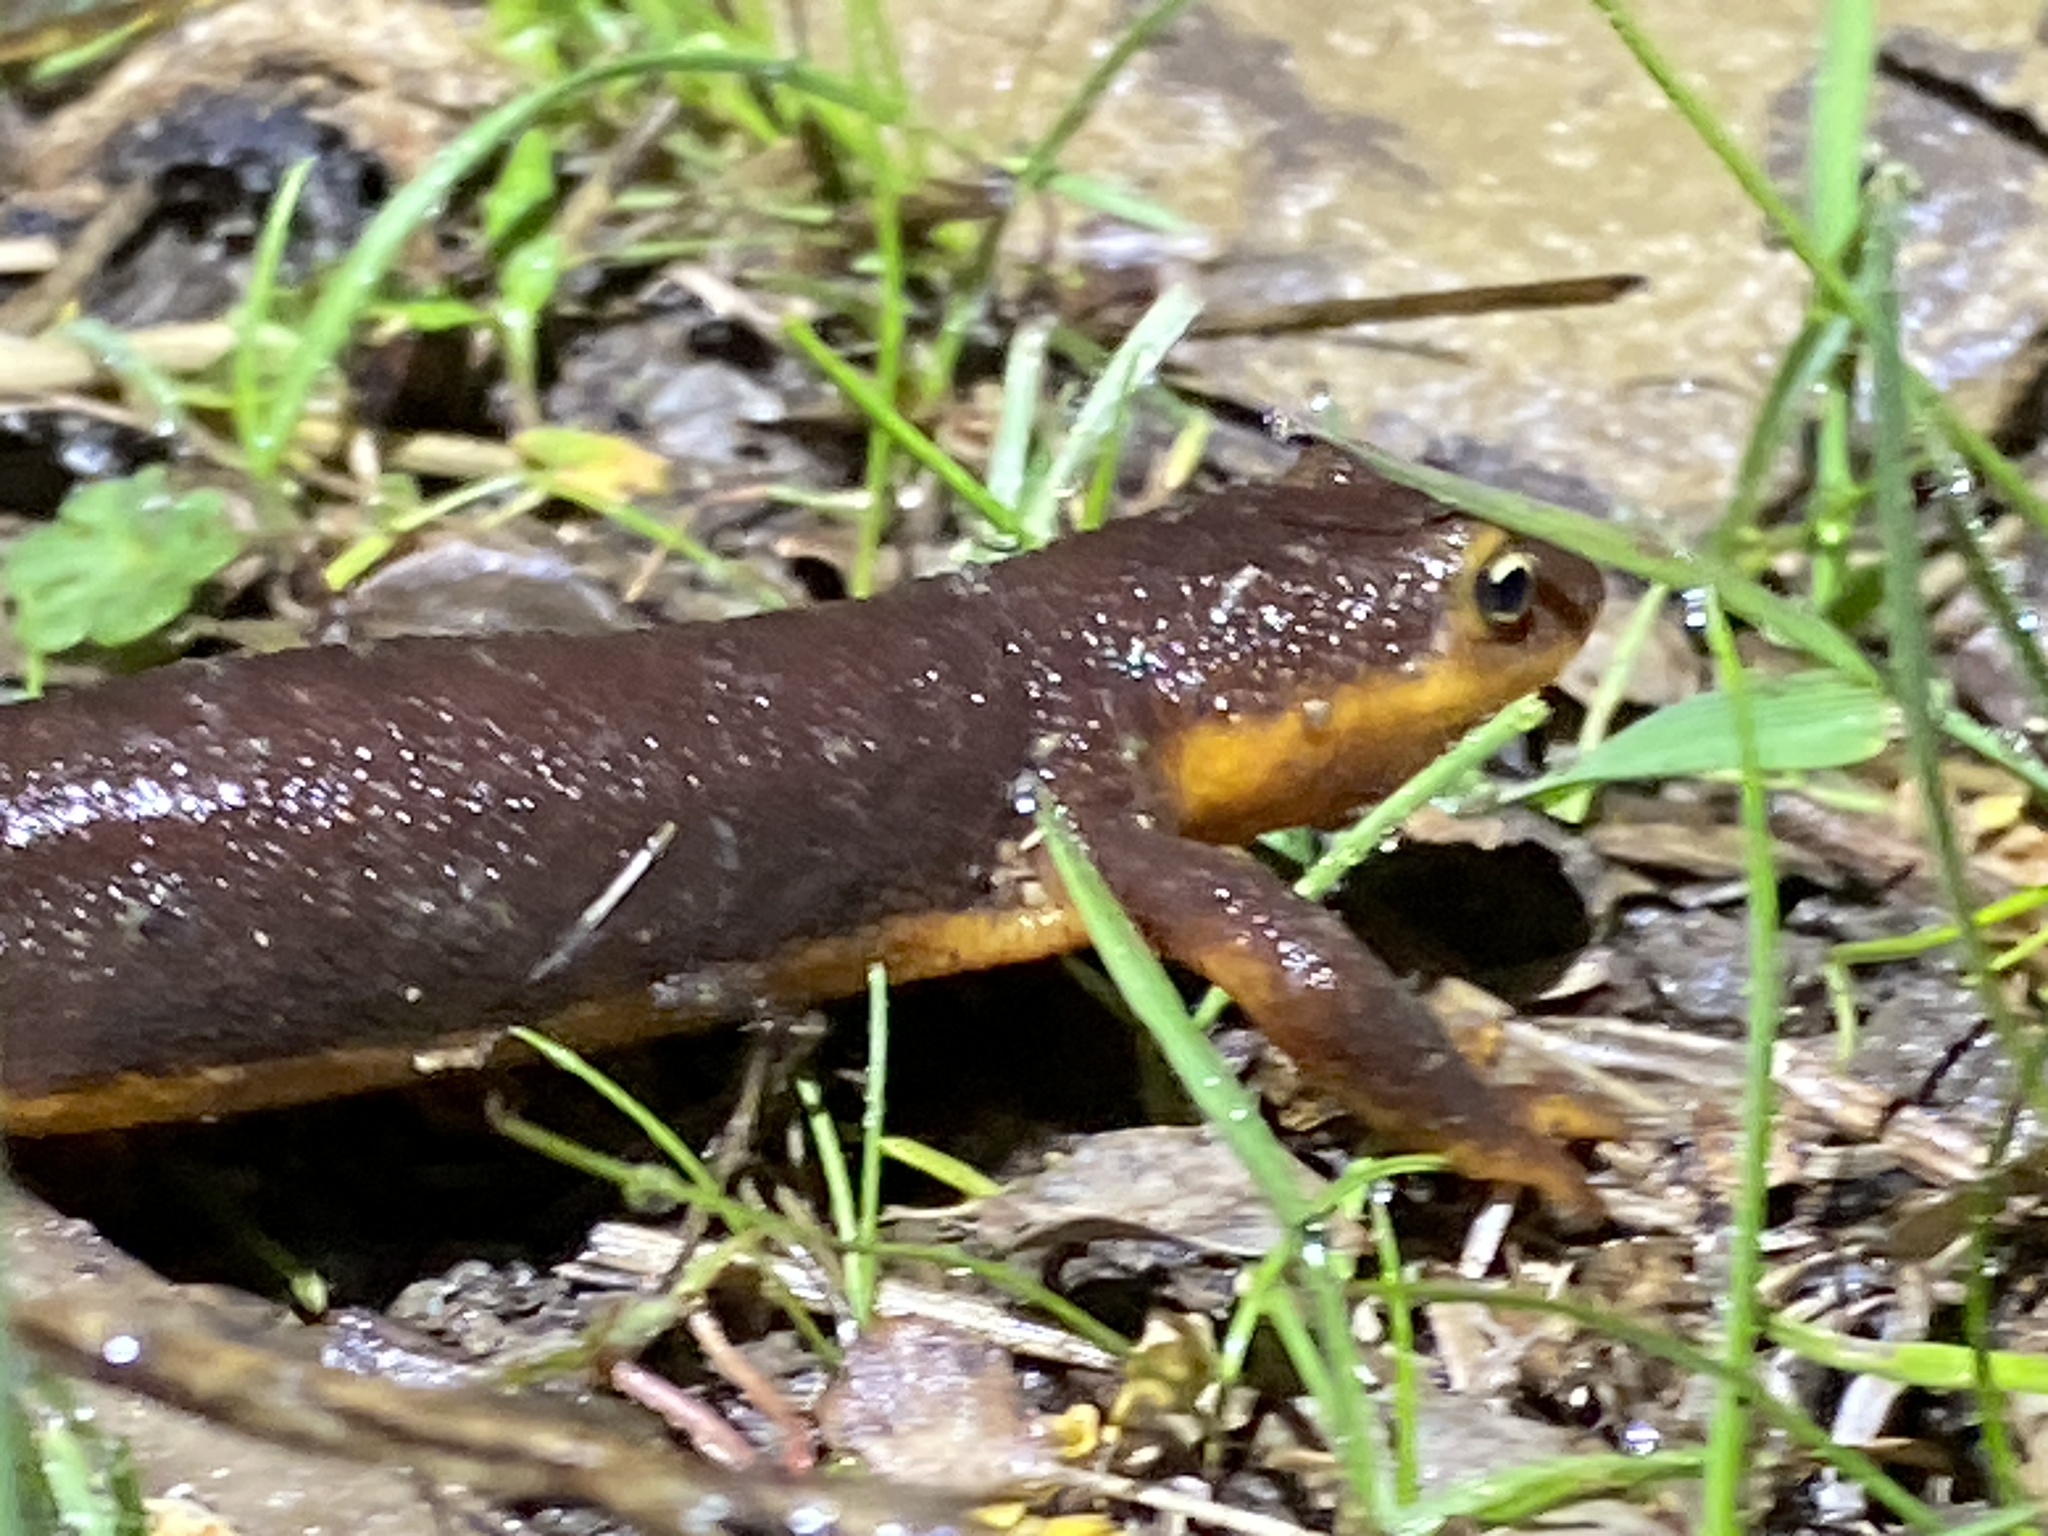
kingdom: Animalia
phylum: Chordata
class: Amphibia
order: Caudata
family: Salamandridae
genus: Taricha
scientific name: Taricha torosa
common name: California newt
